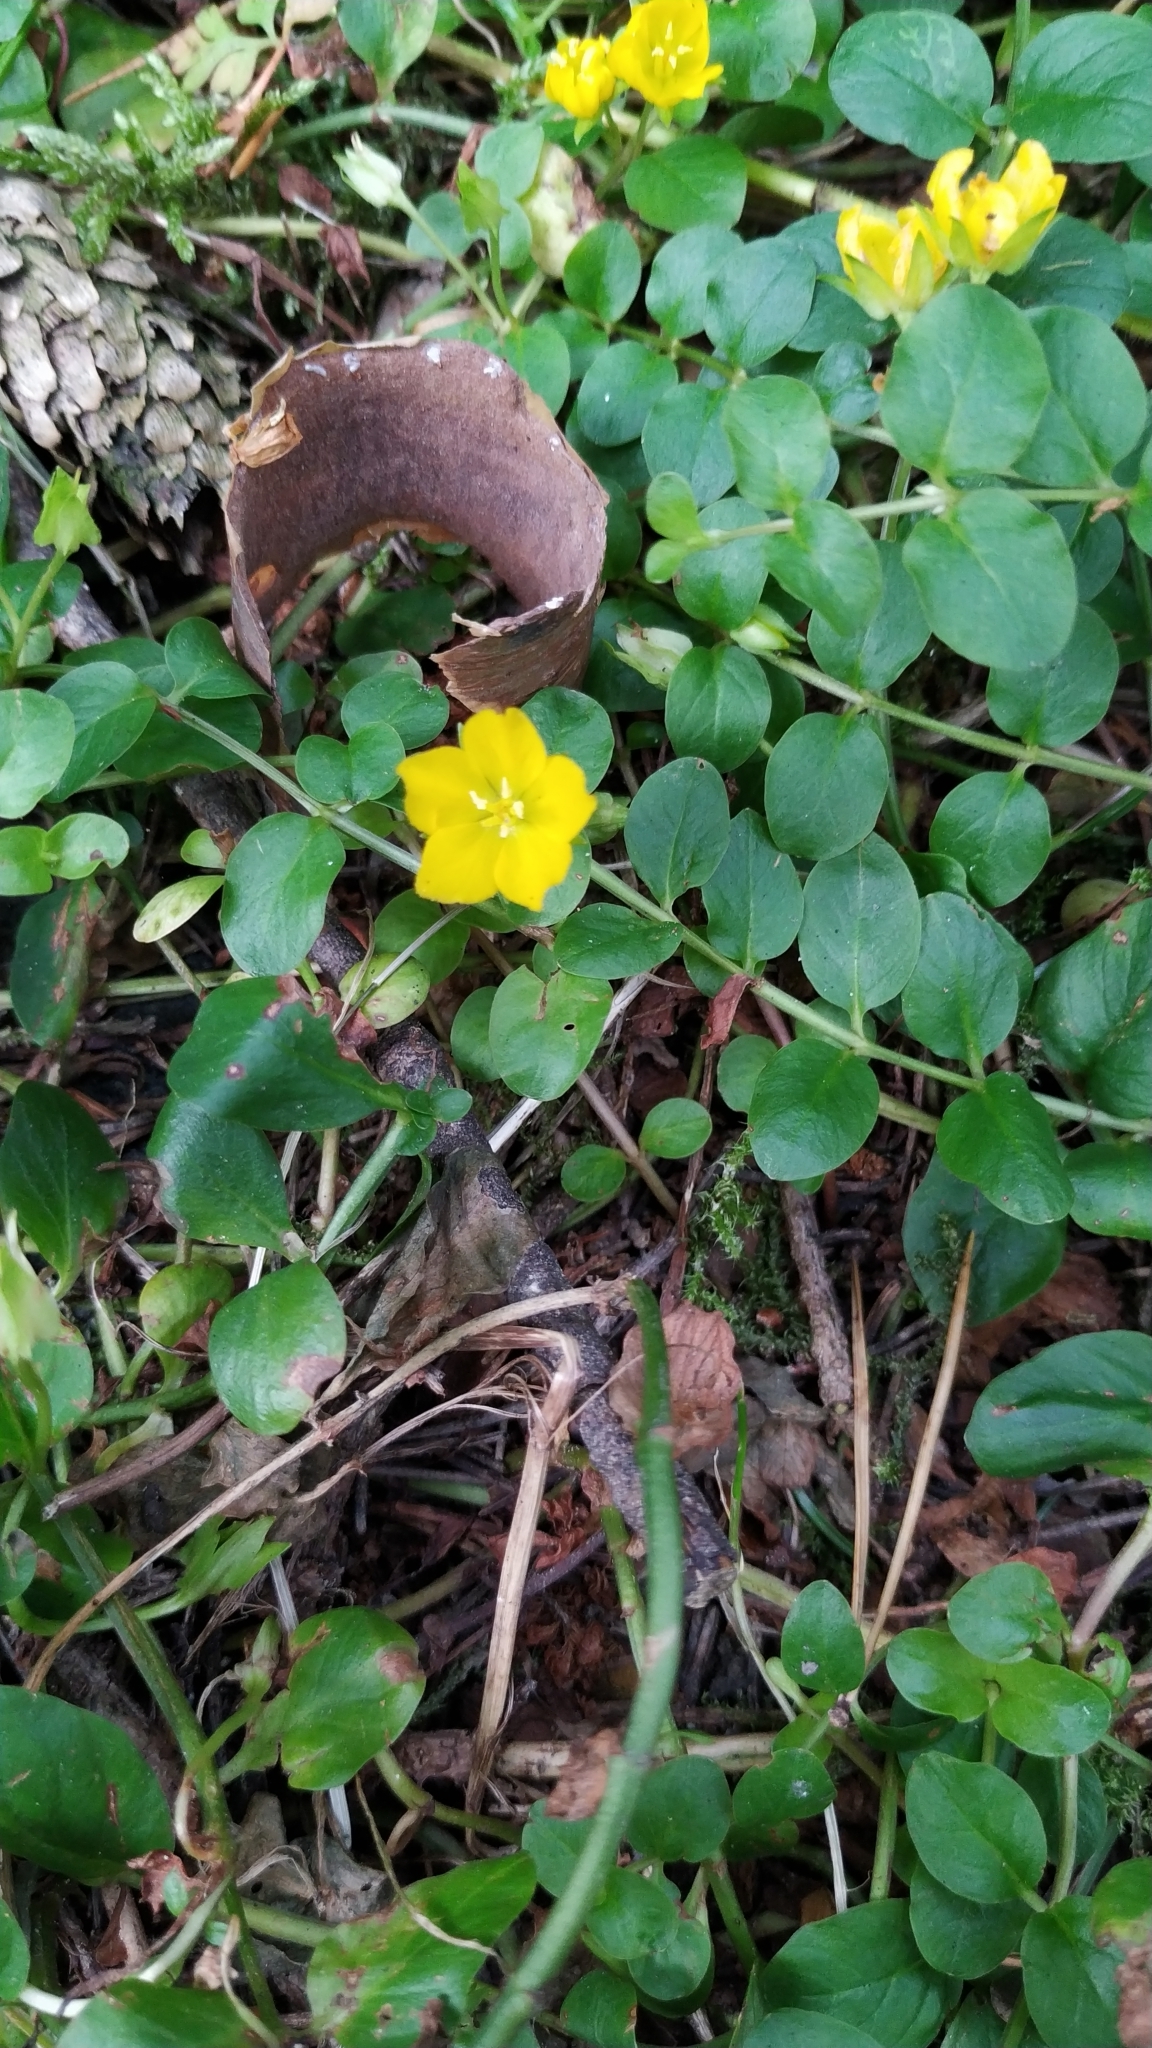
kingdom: Plantae
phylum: Tracheophyta
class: Magnoliopsida
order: Ericales
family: Primulaceae
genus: Lysimachia
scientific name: Lysimachia nummularia
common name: Moneywort
